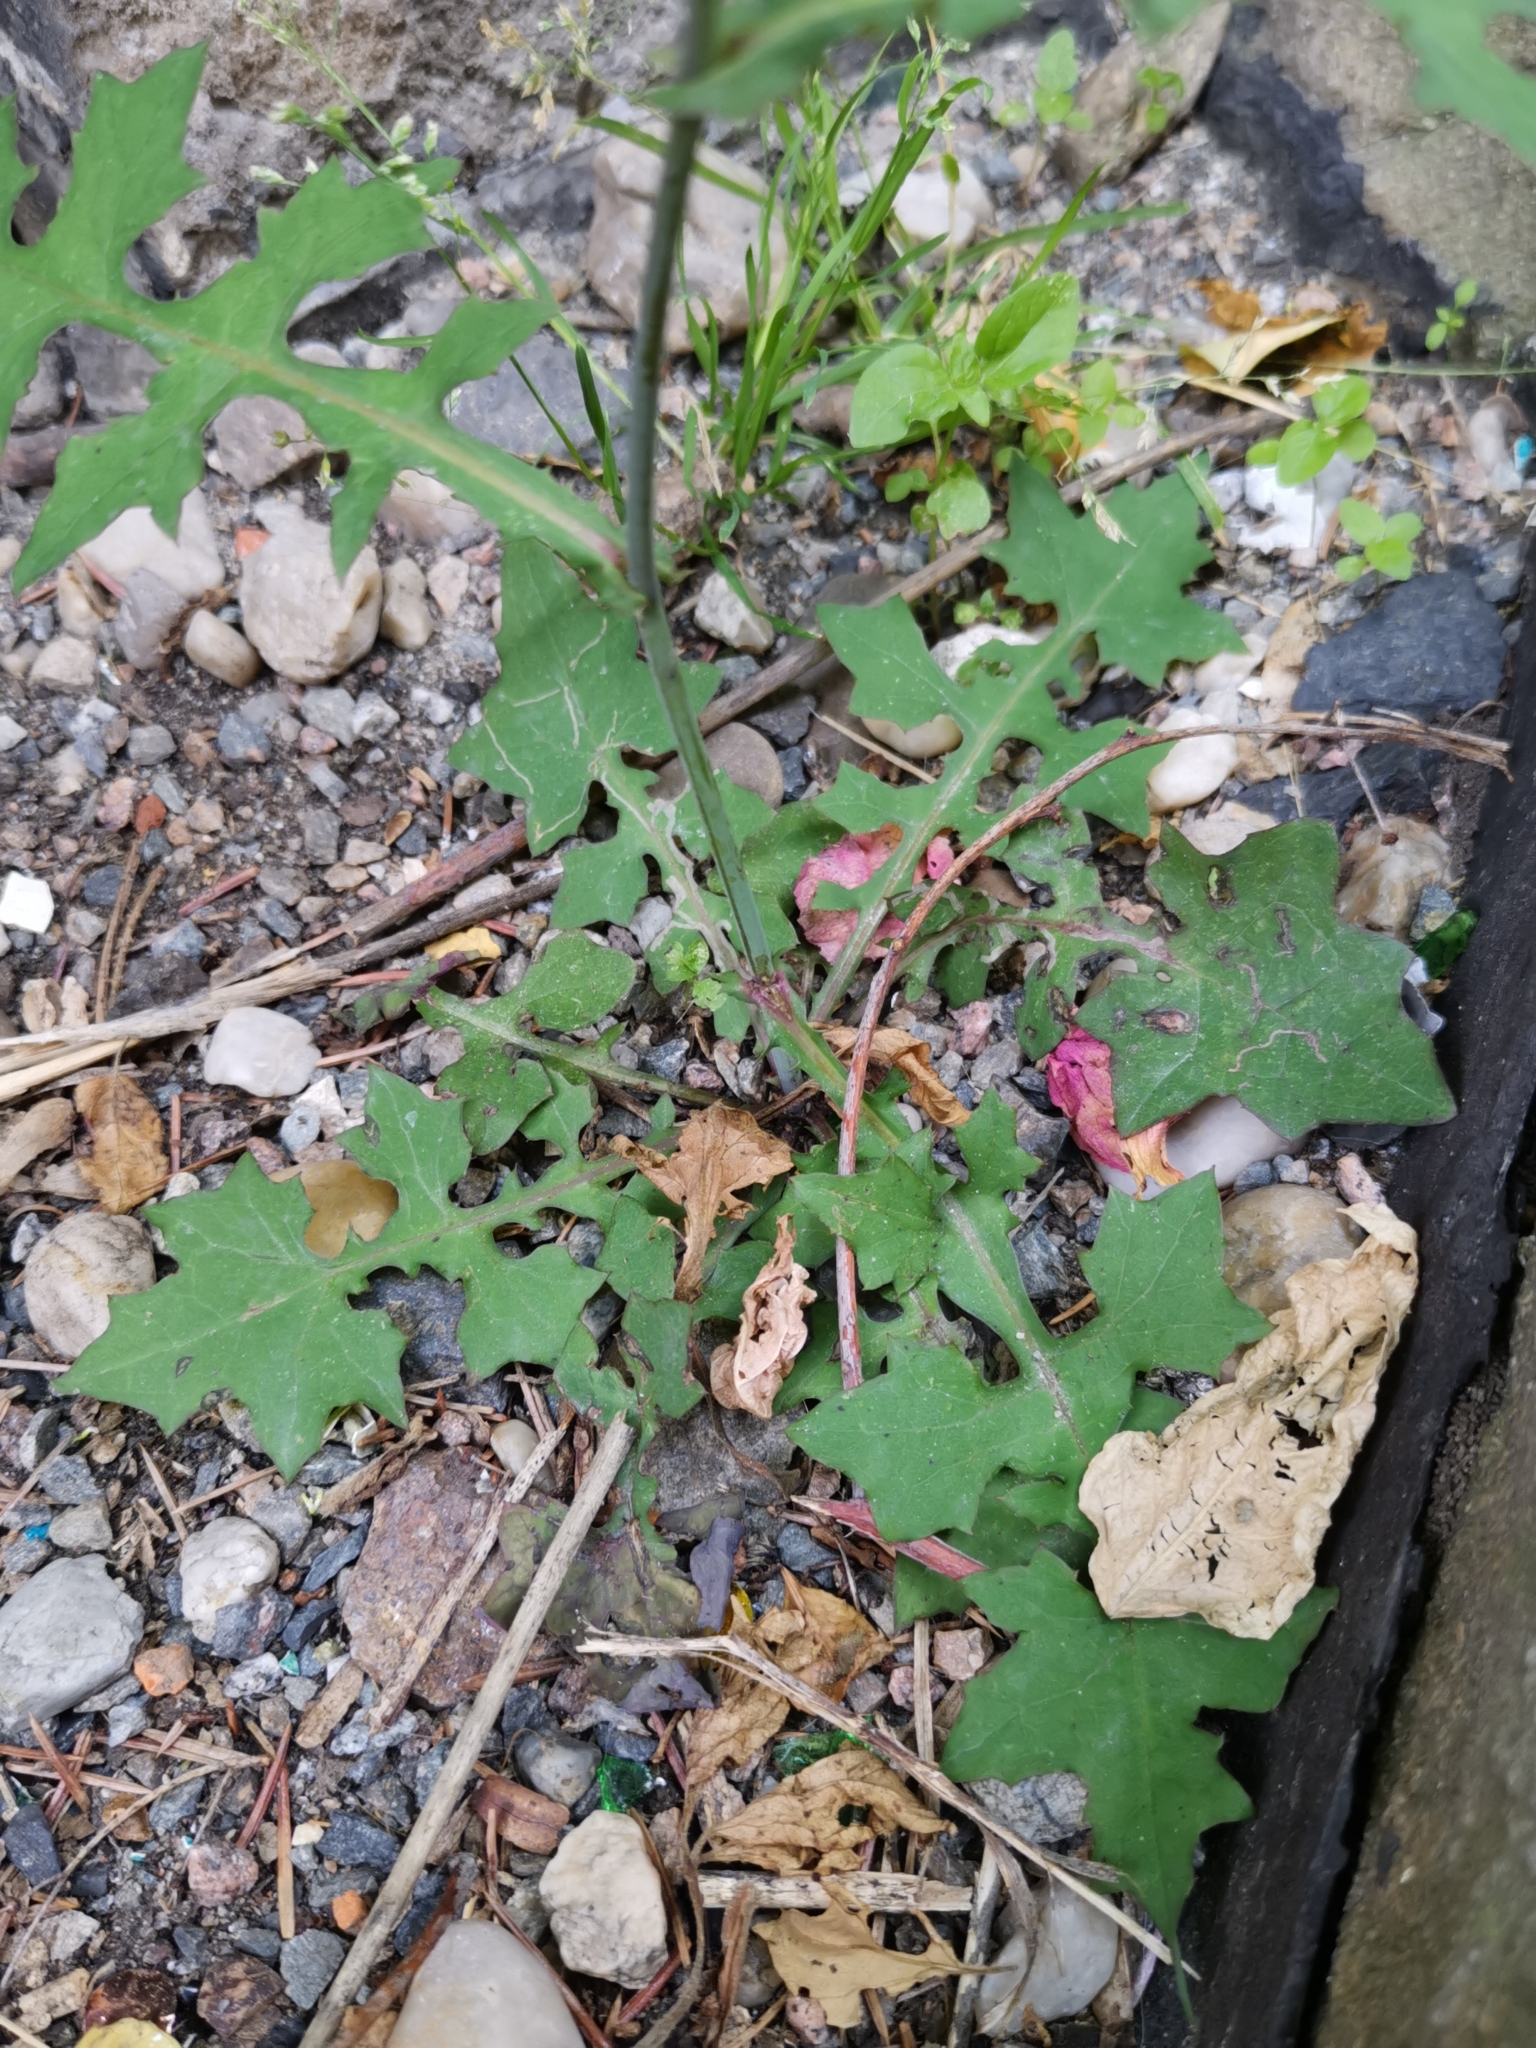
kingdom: Plantae
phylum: Tracheophyta
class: Magnoliopsida
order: Asterales
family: Asteraceae
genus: Mycelis
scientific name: Mycelis muralis
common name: Wall lettuce
